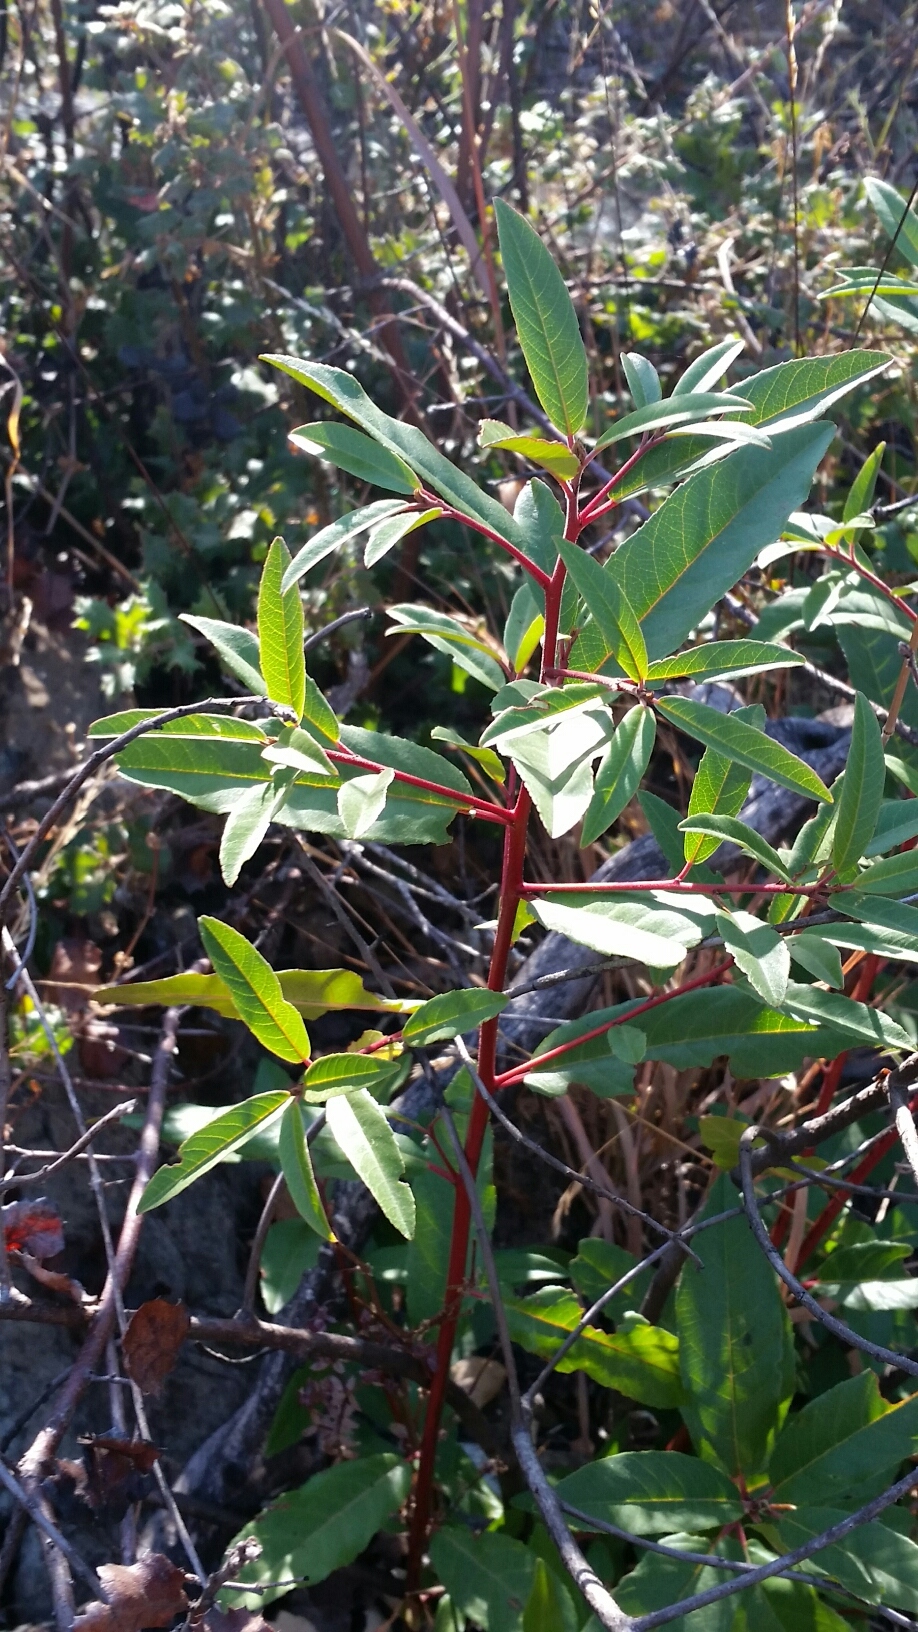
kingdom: Plantae
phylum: Tracheophyta
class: Magnoliopsida
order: Rosales
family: Rhamnaceae
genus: Frangula
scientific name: Frangula californica
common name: California buckthorn
